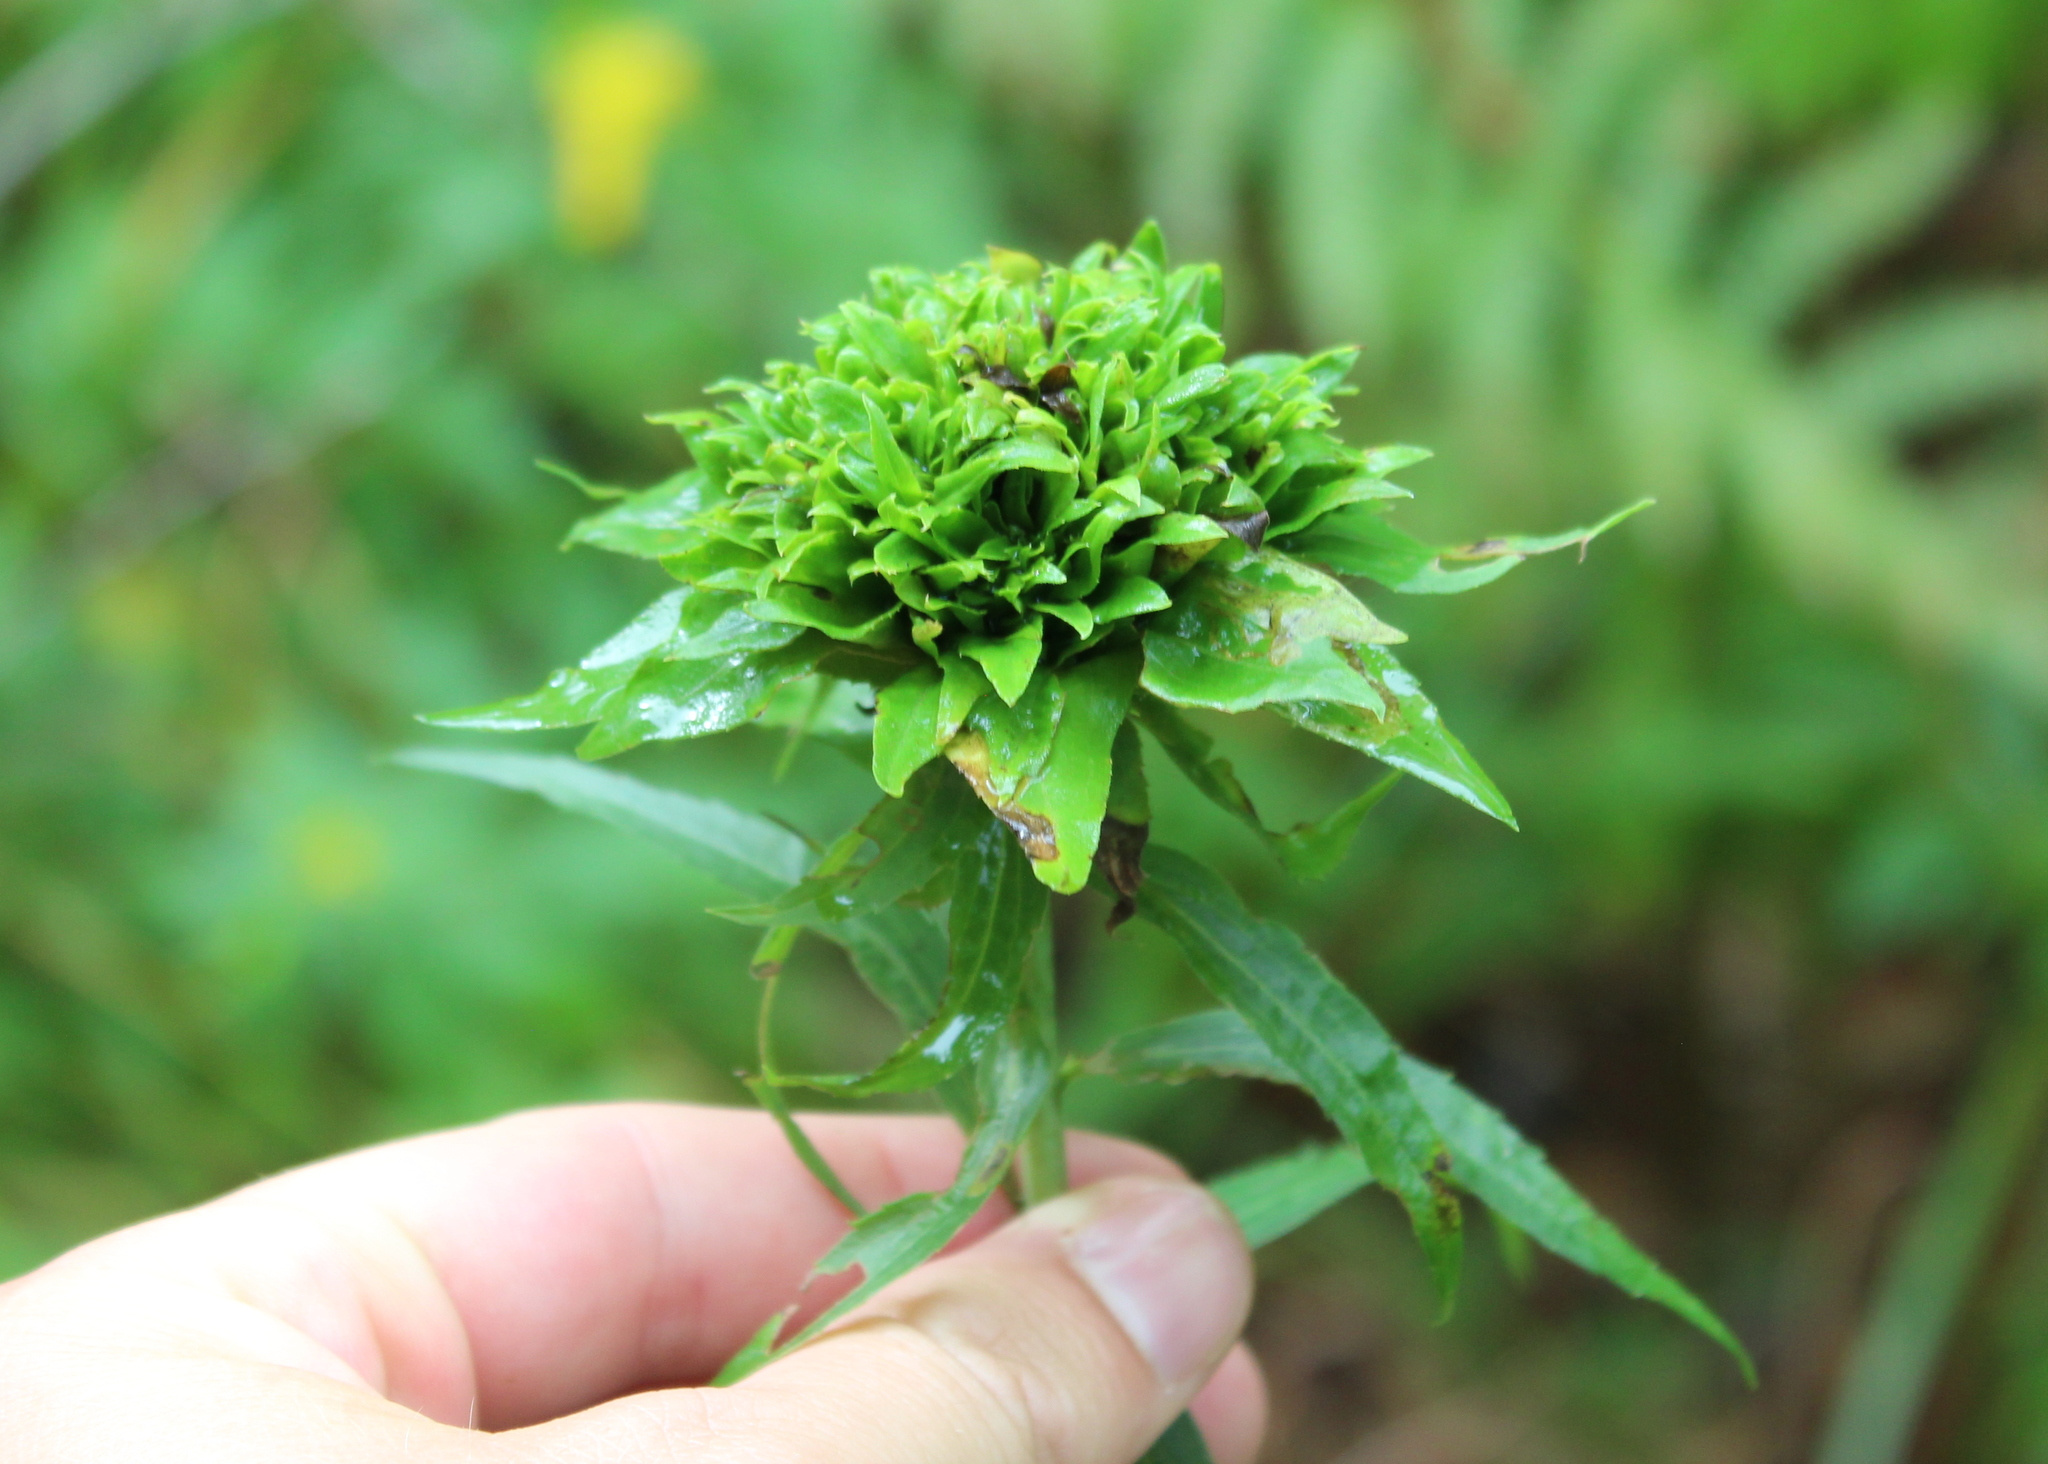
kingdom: Animalia
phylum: Arthropoda
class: Insecta
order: Diptera
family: Cecidomyiidae
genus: Rhopalomyia
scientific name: Rhopalomyia capitata
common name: Giant goldenrod bunch gall midge
